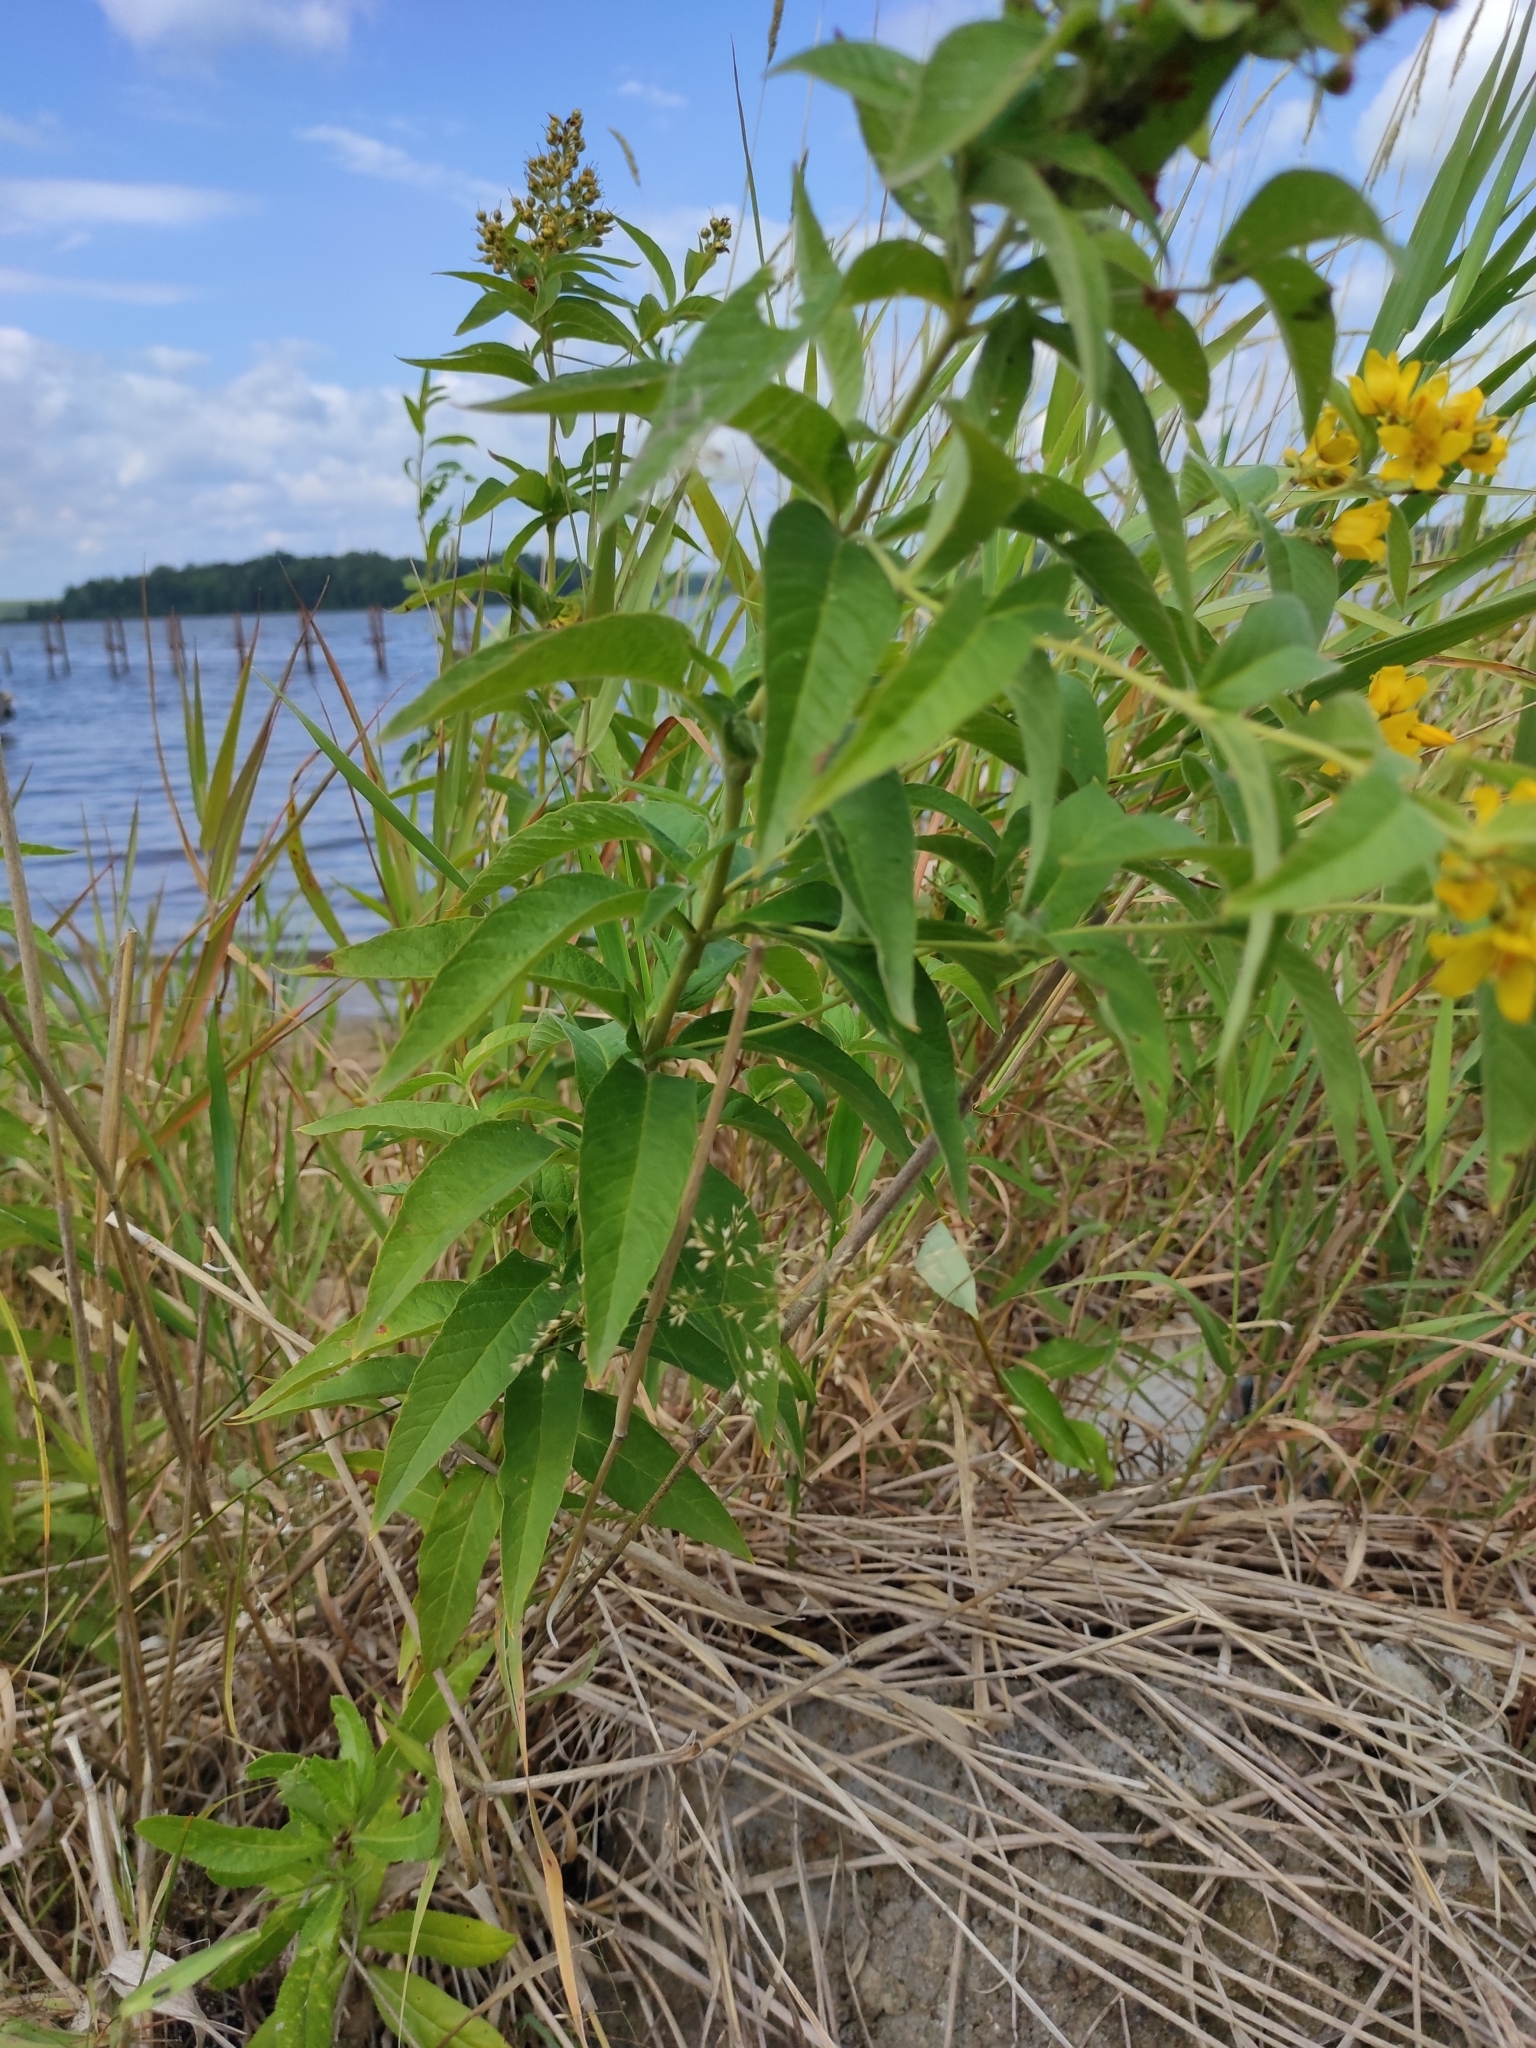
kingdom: Plantae
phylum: Tracheophyta
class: Magnoliopsida
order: Ericales
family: Primulaceae
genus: Lysimachia
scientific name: Lysimachia vulgaris
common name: Yellow loosestrife
